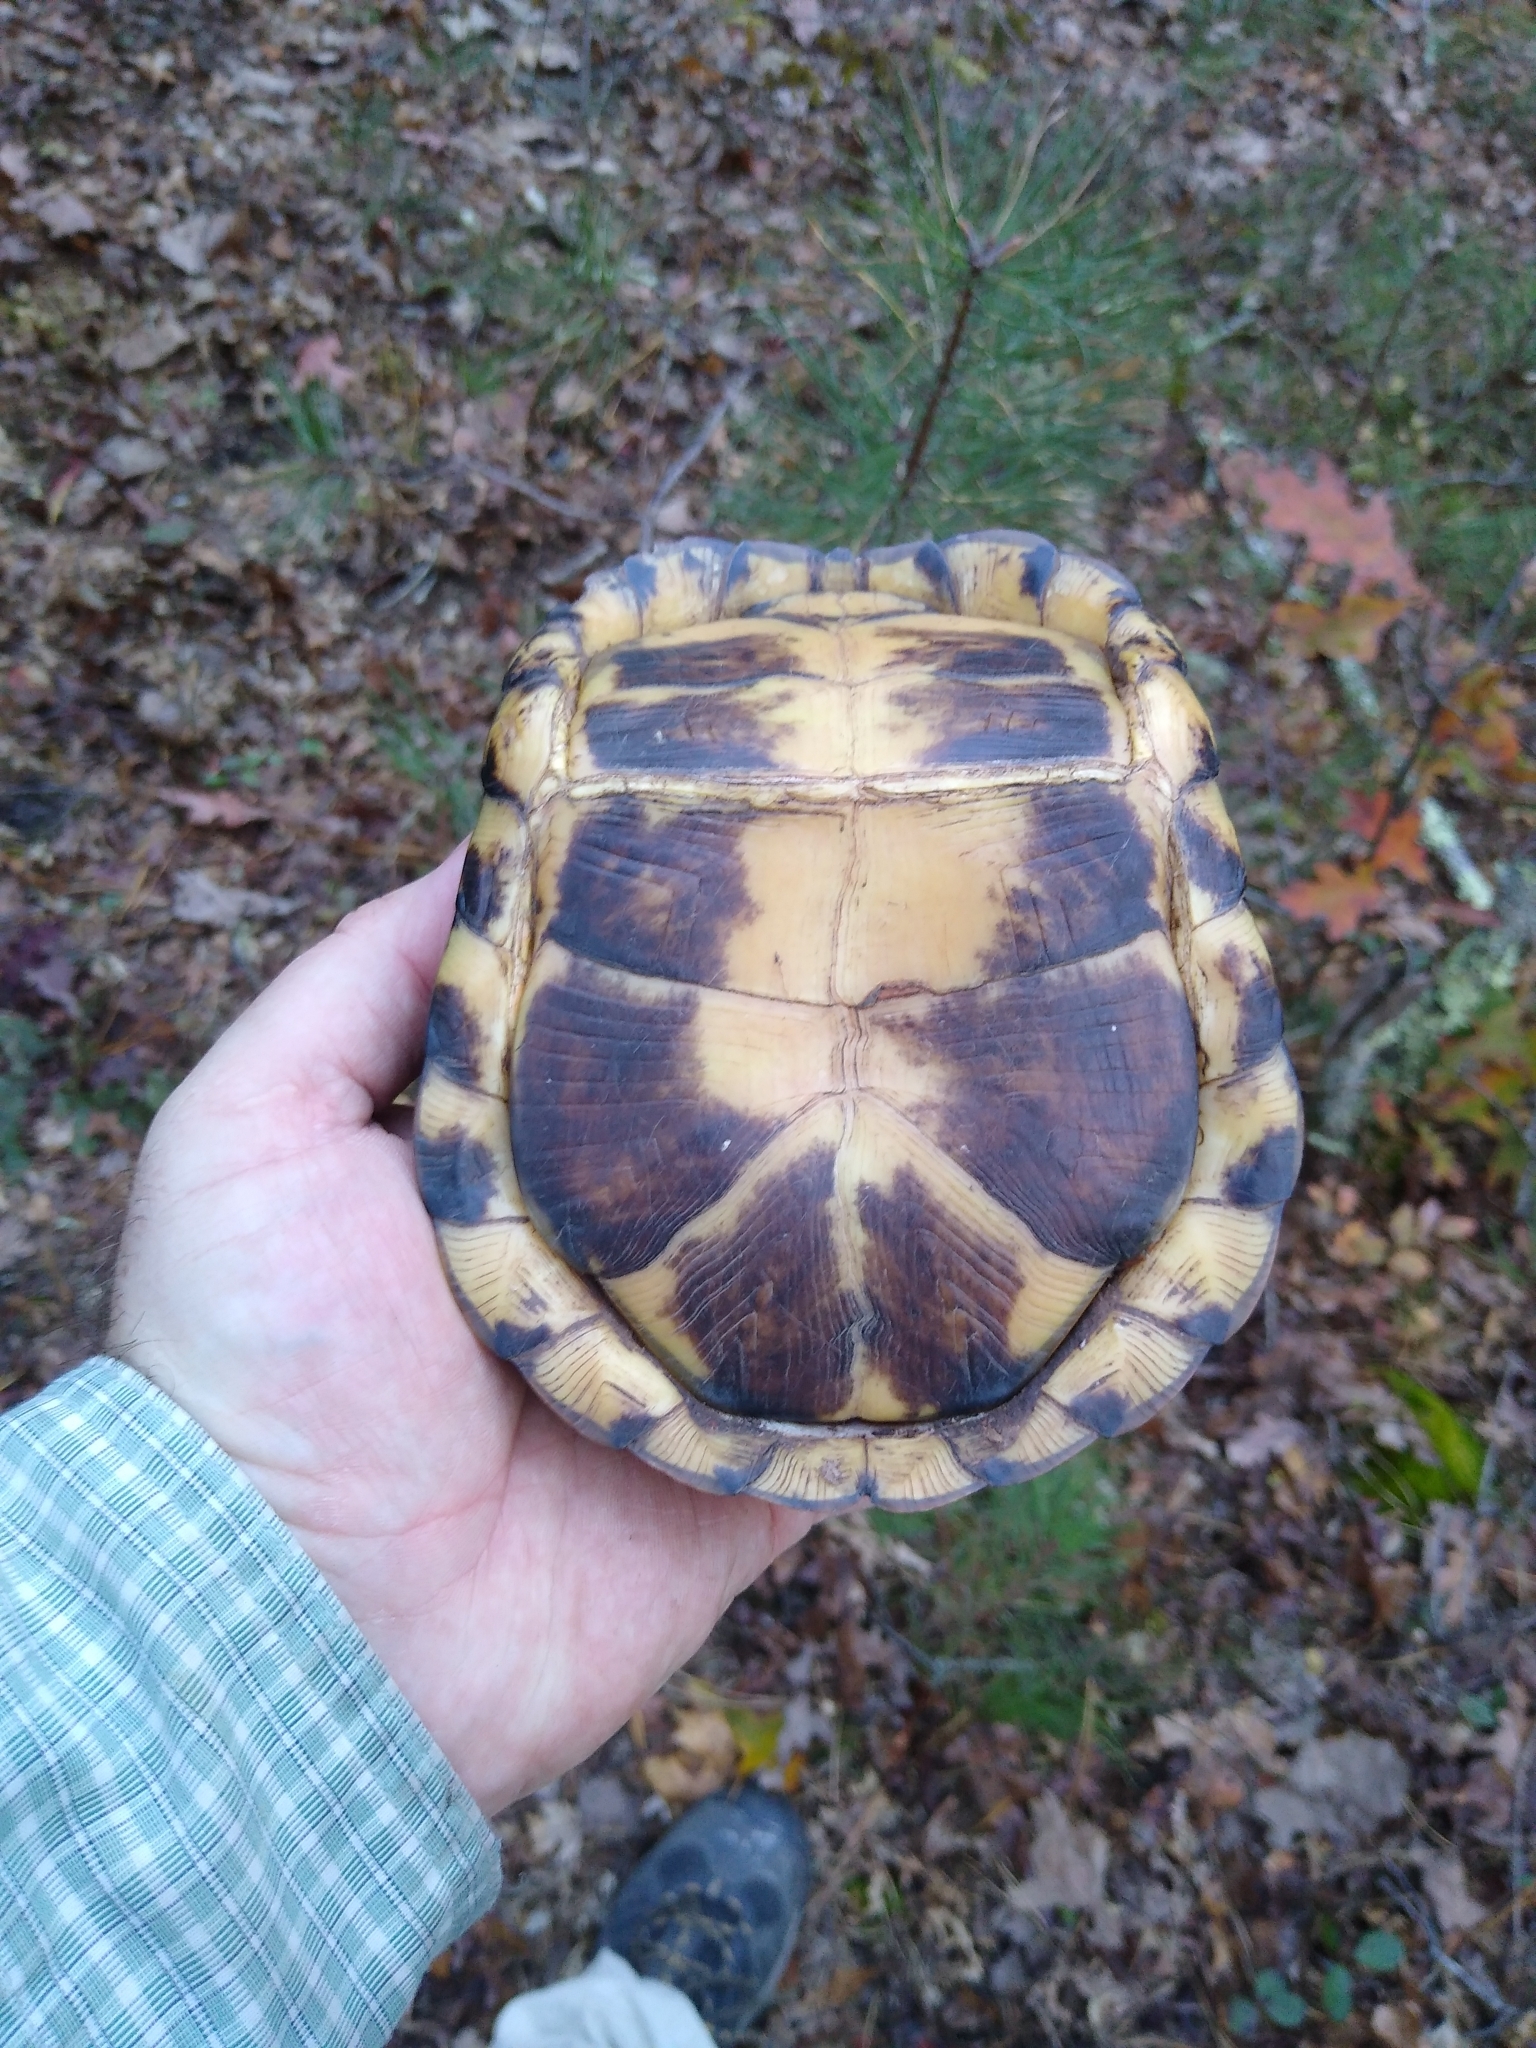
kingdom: Animalia
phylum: Chordata
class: Testudines
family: Emydidae
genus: Terrapene
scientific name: Terrapene carolina
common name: Common box turtle
